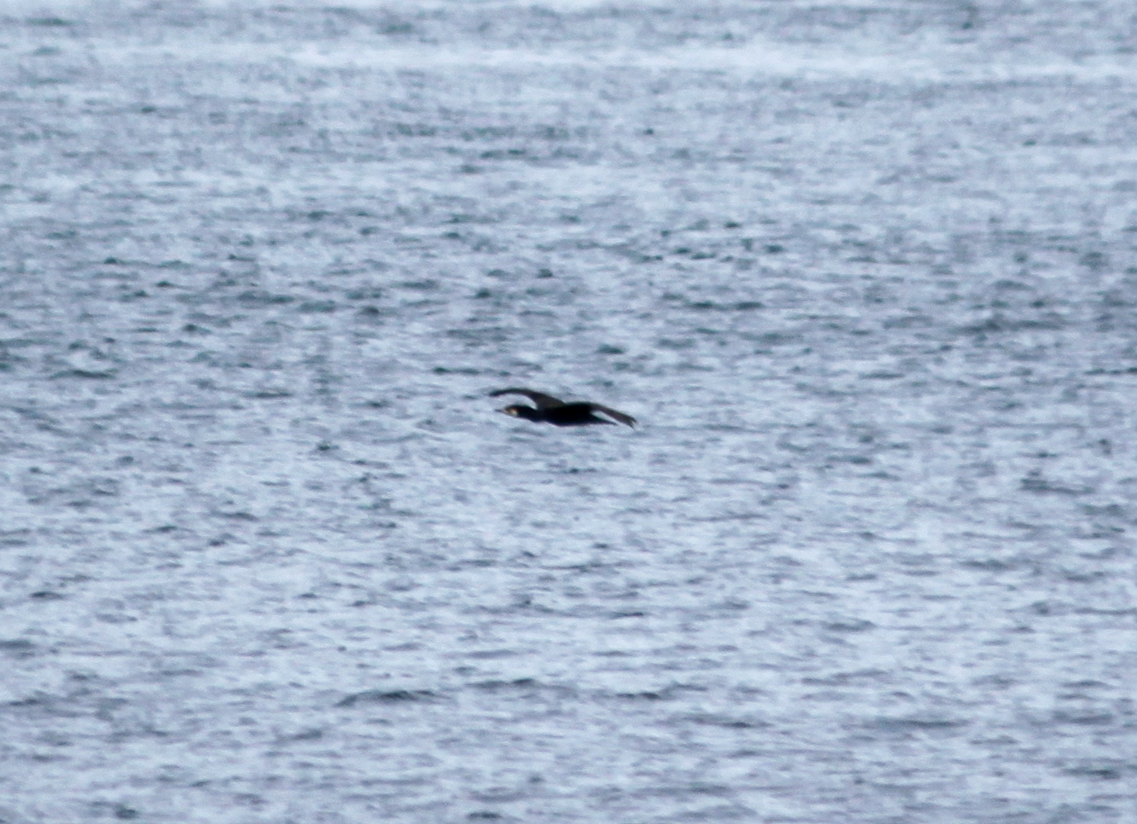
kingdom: Animalia
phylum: Chordata
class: Aves
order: Suliformes
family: Phalacrocoracidae
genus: Phalacrocorax
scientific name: Phalacrocorax carbo
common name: Great cormorant
